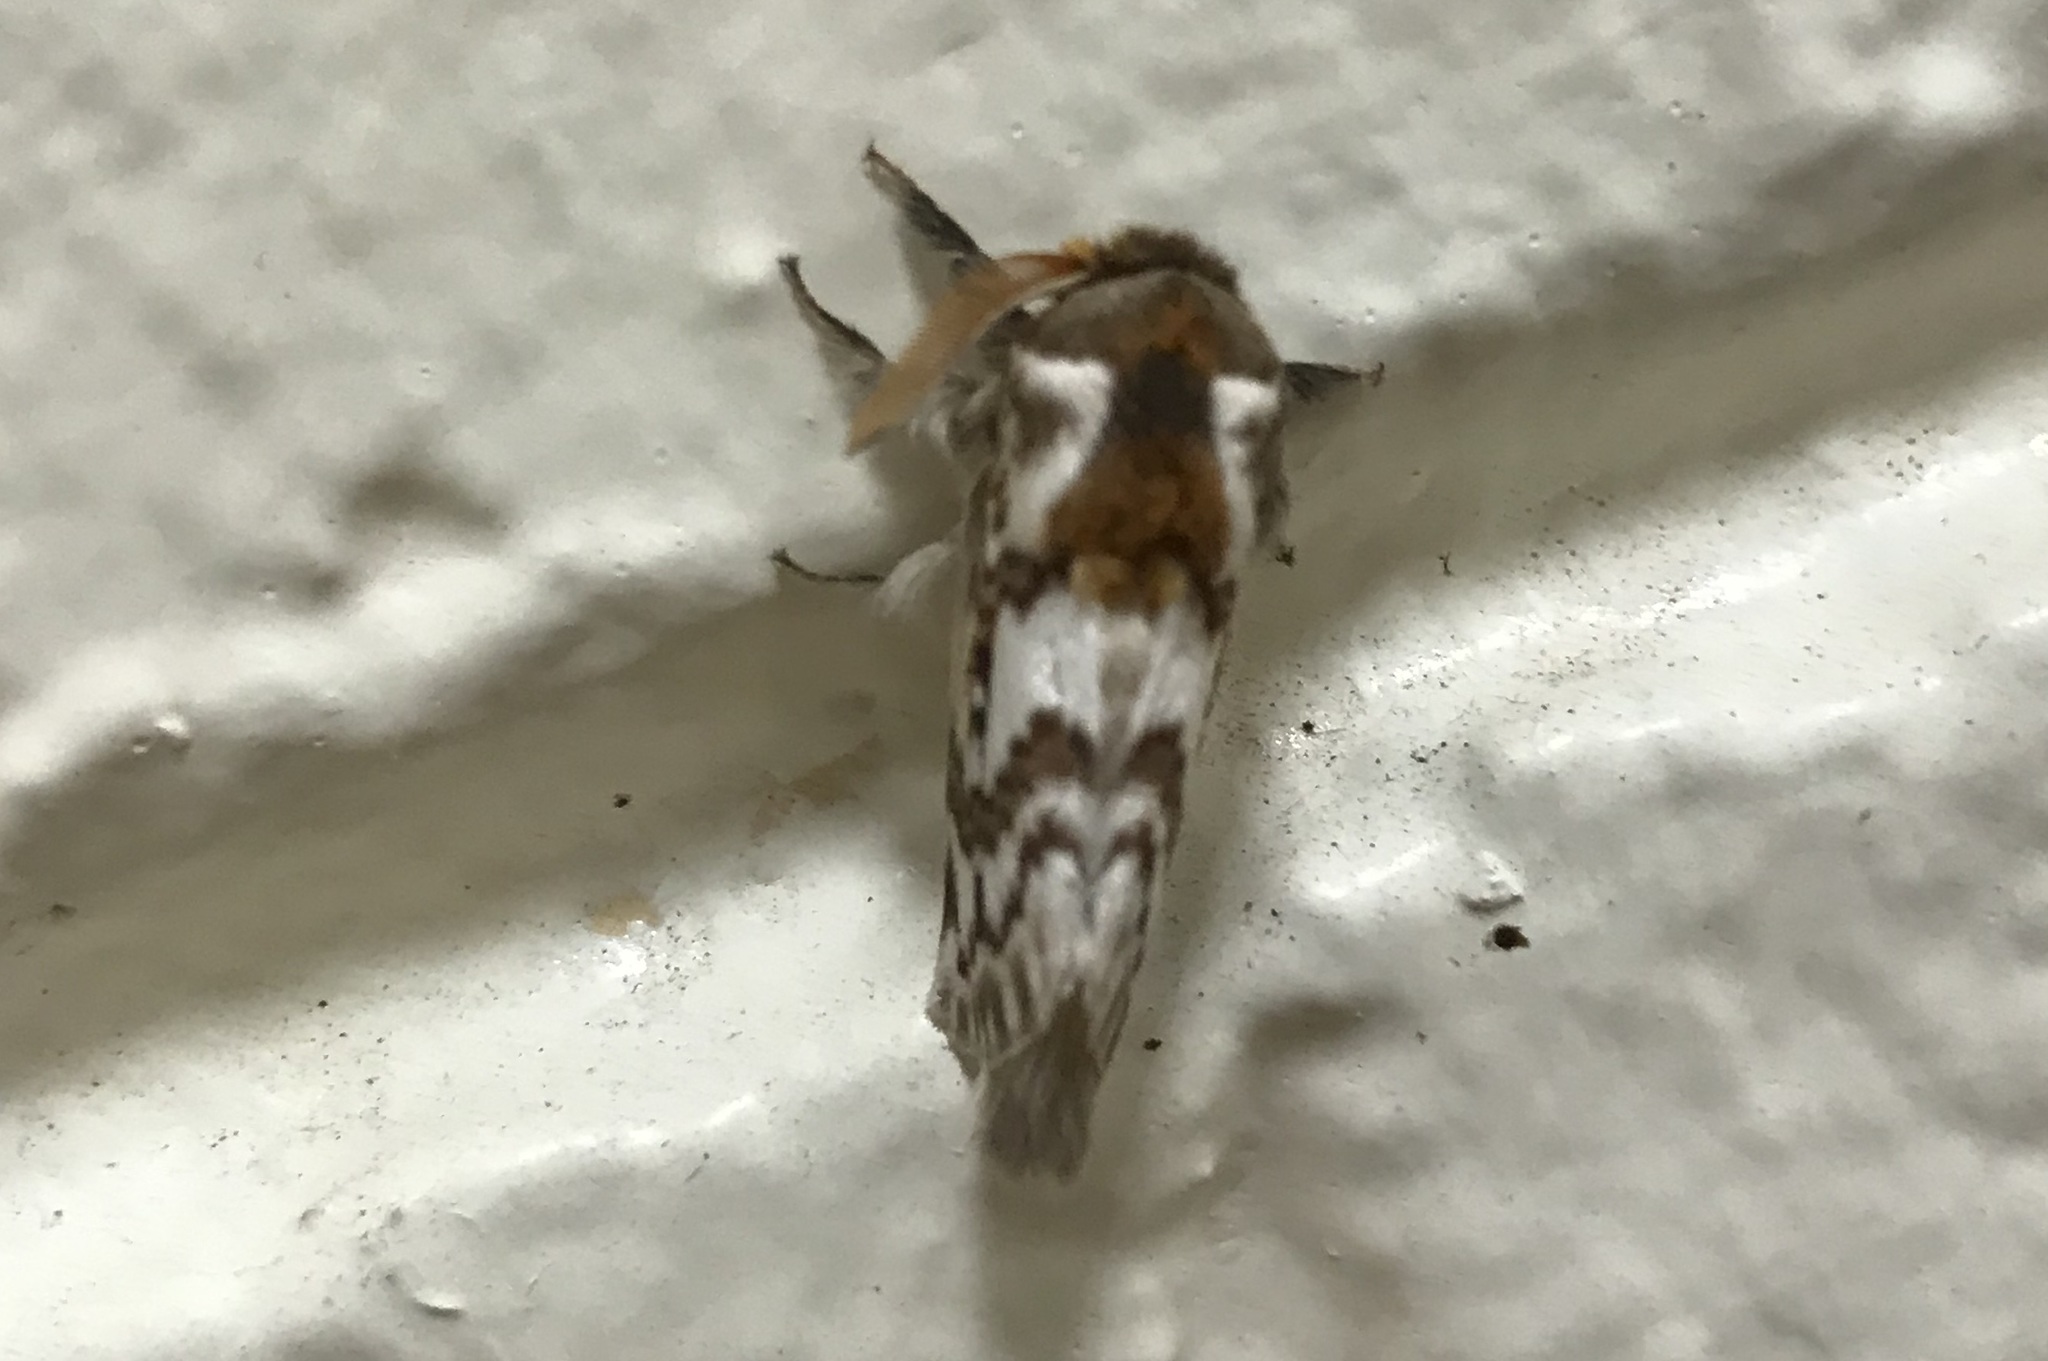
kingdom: Animalia
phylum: Arthropoda
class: Insecta
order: Lepidoptera
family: Lasiocampidae
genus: Pernattia
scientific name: Pernattia brevipennis
